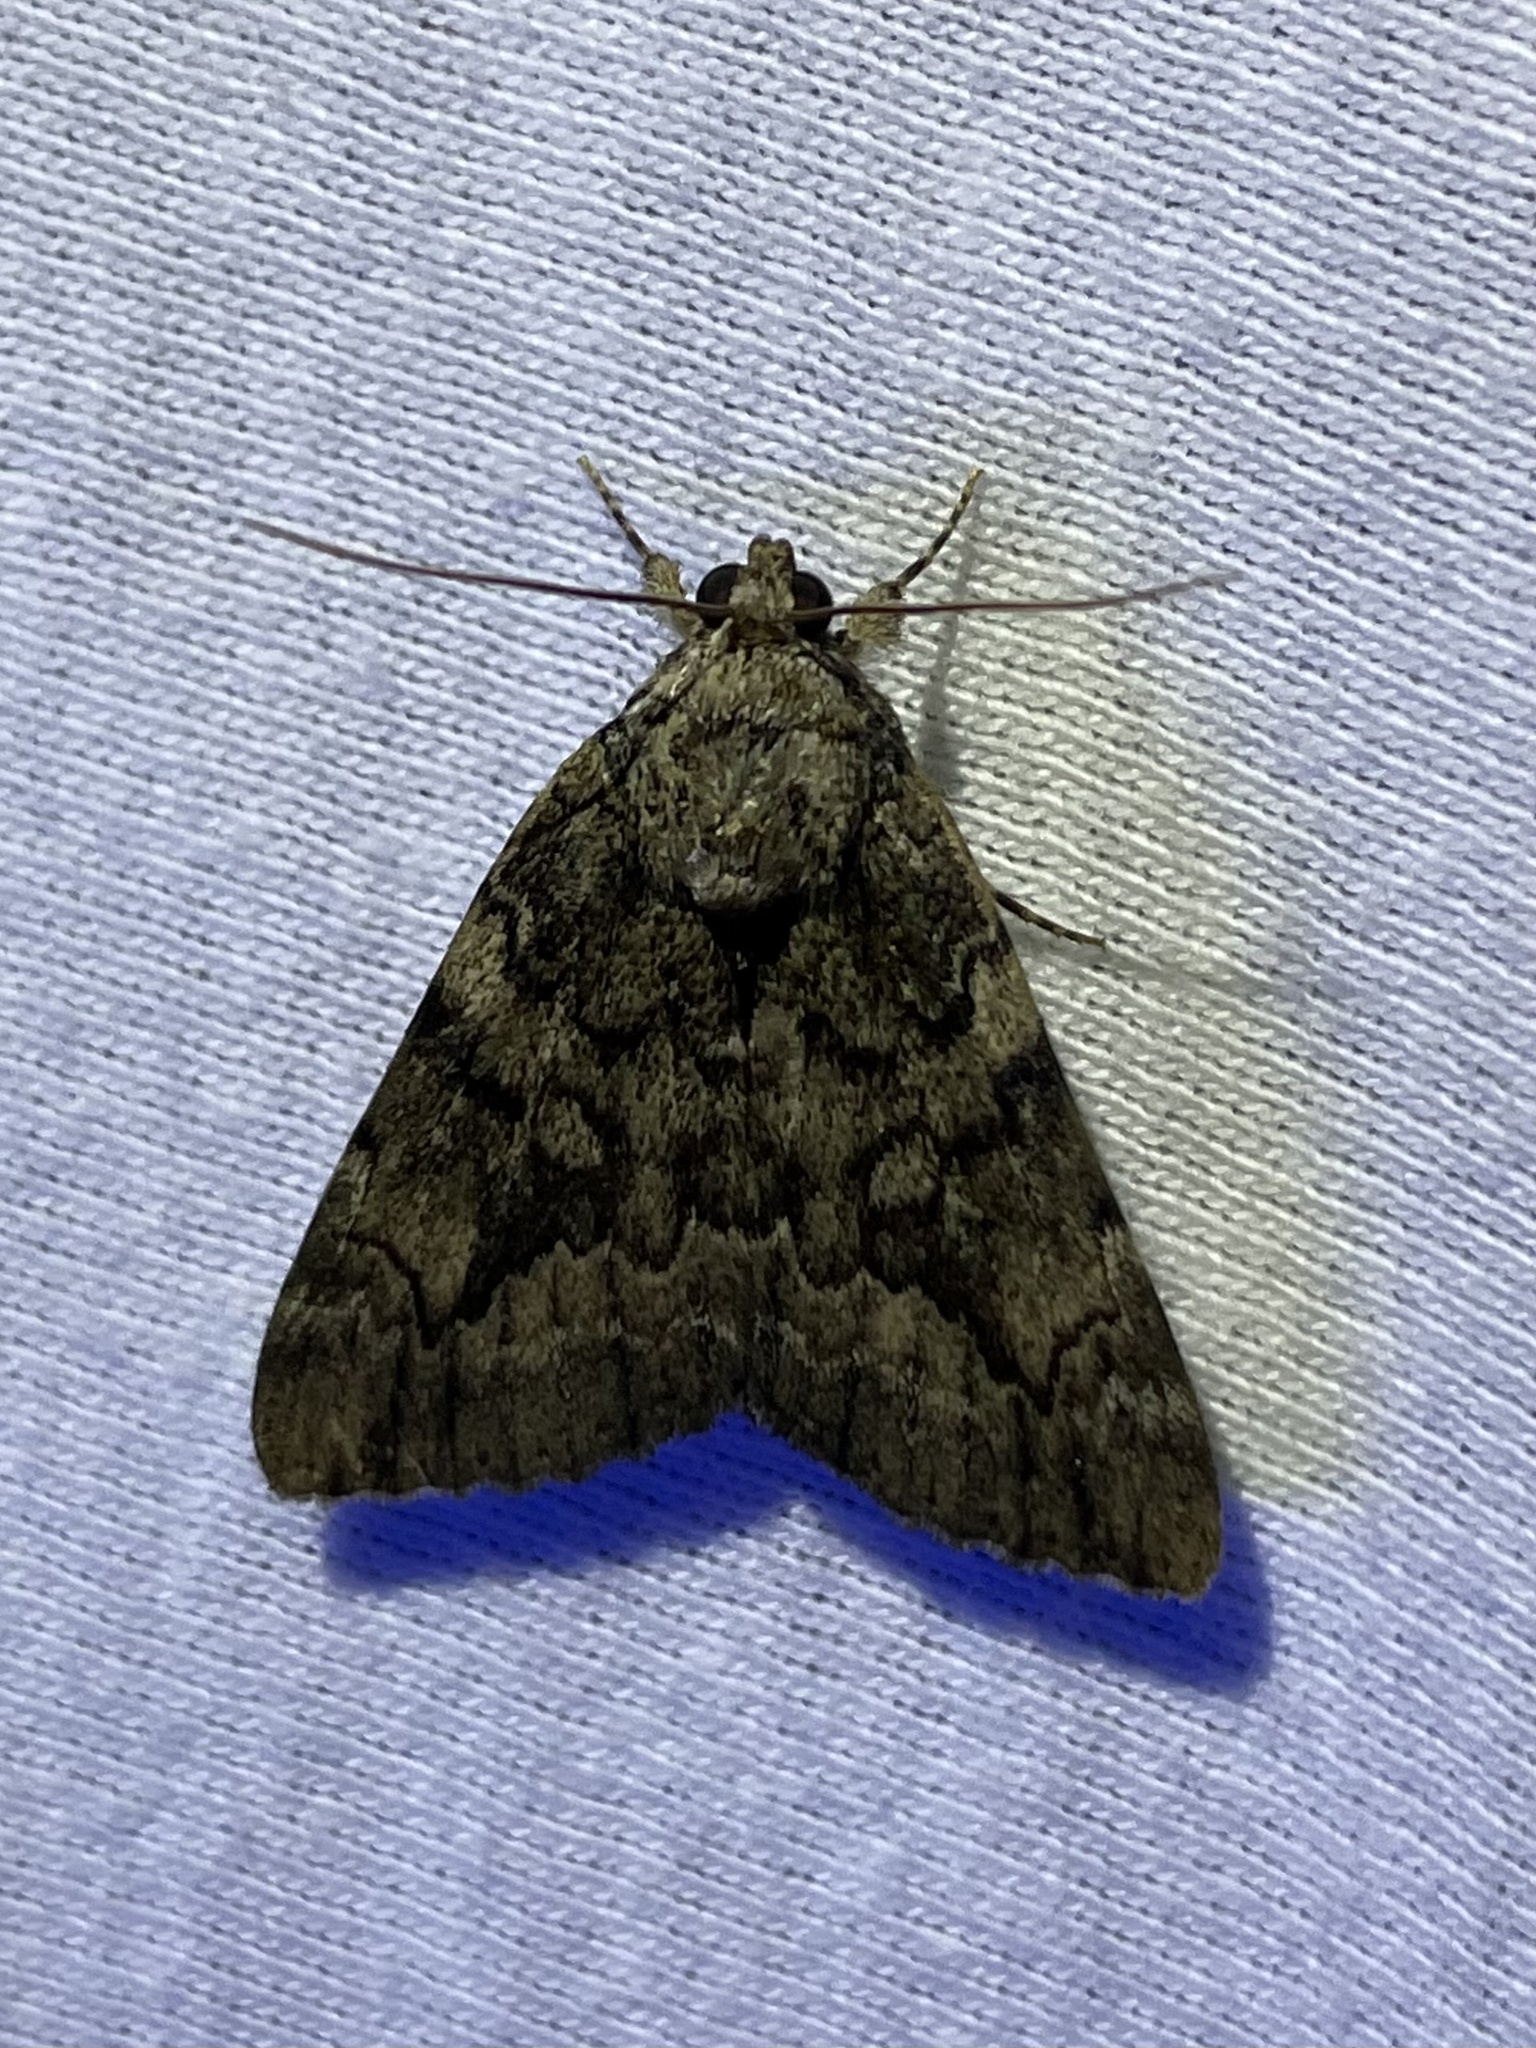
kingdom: Animalia
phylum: Arthropoda
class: Insecta
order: Lepidoptera
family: Erebidae
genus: Catocala
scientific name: Catocala micronympha
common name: Little nymph underwing
